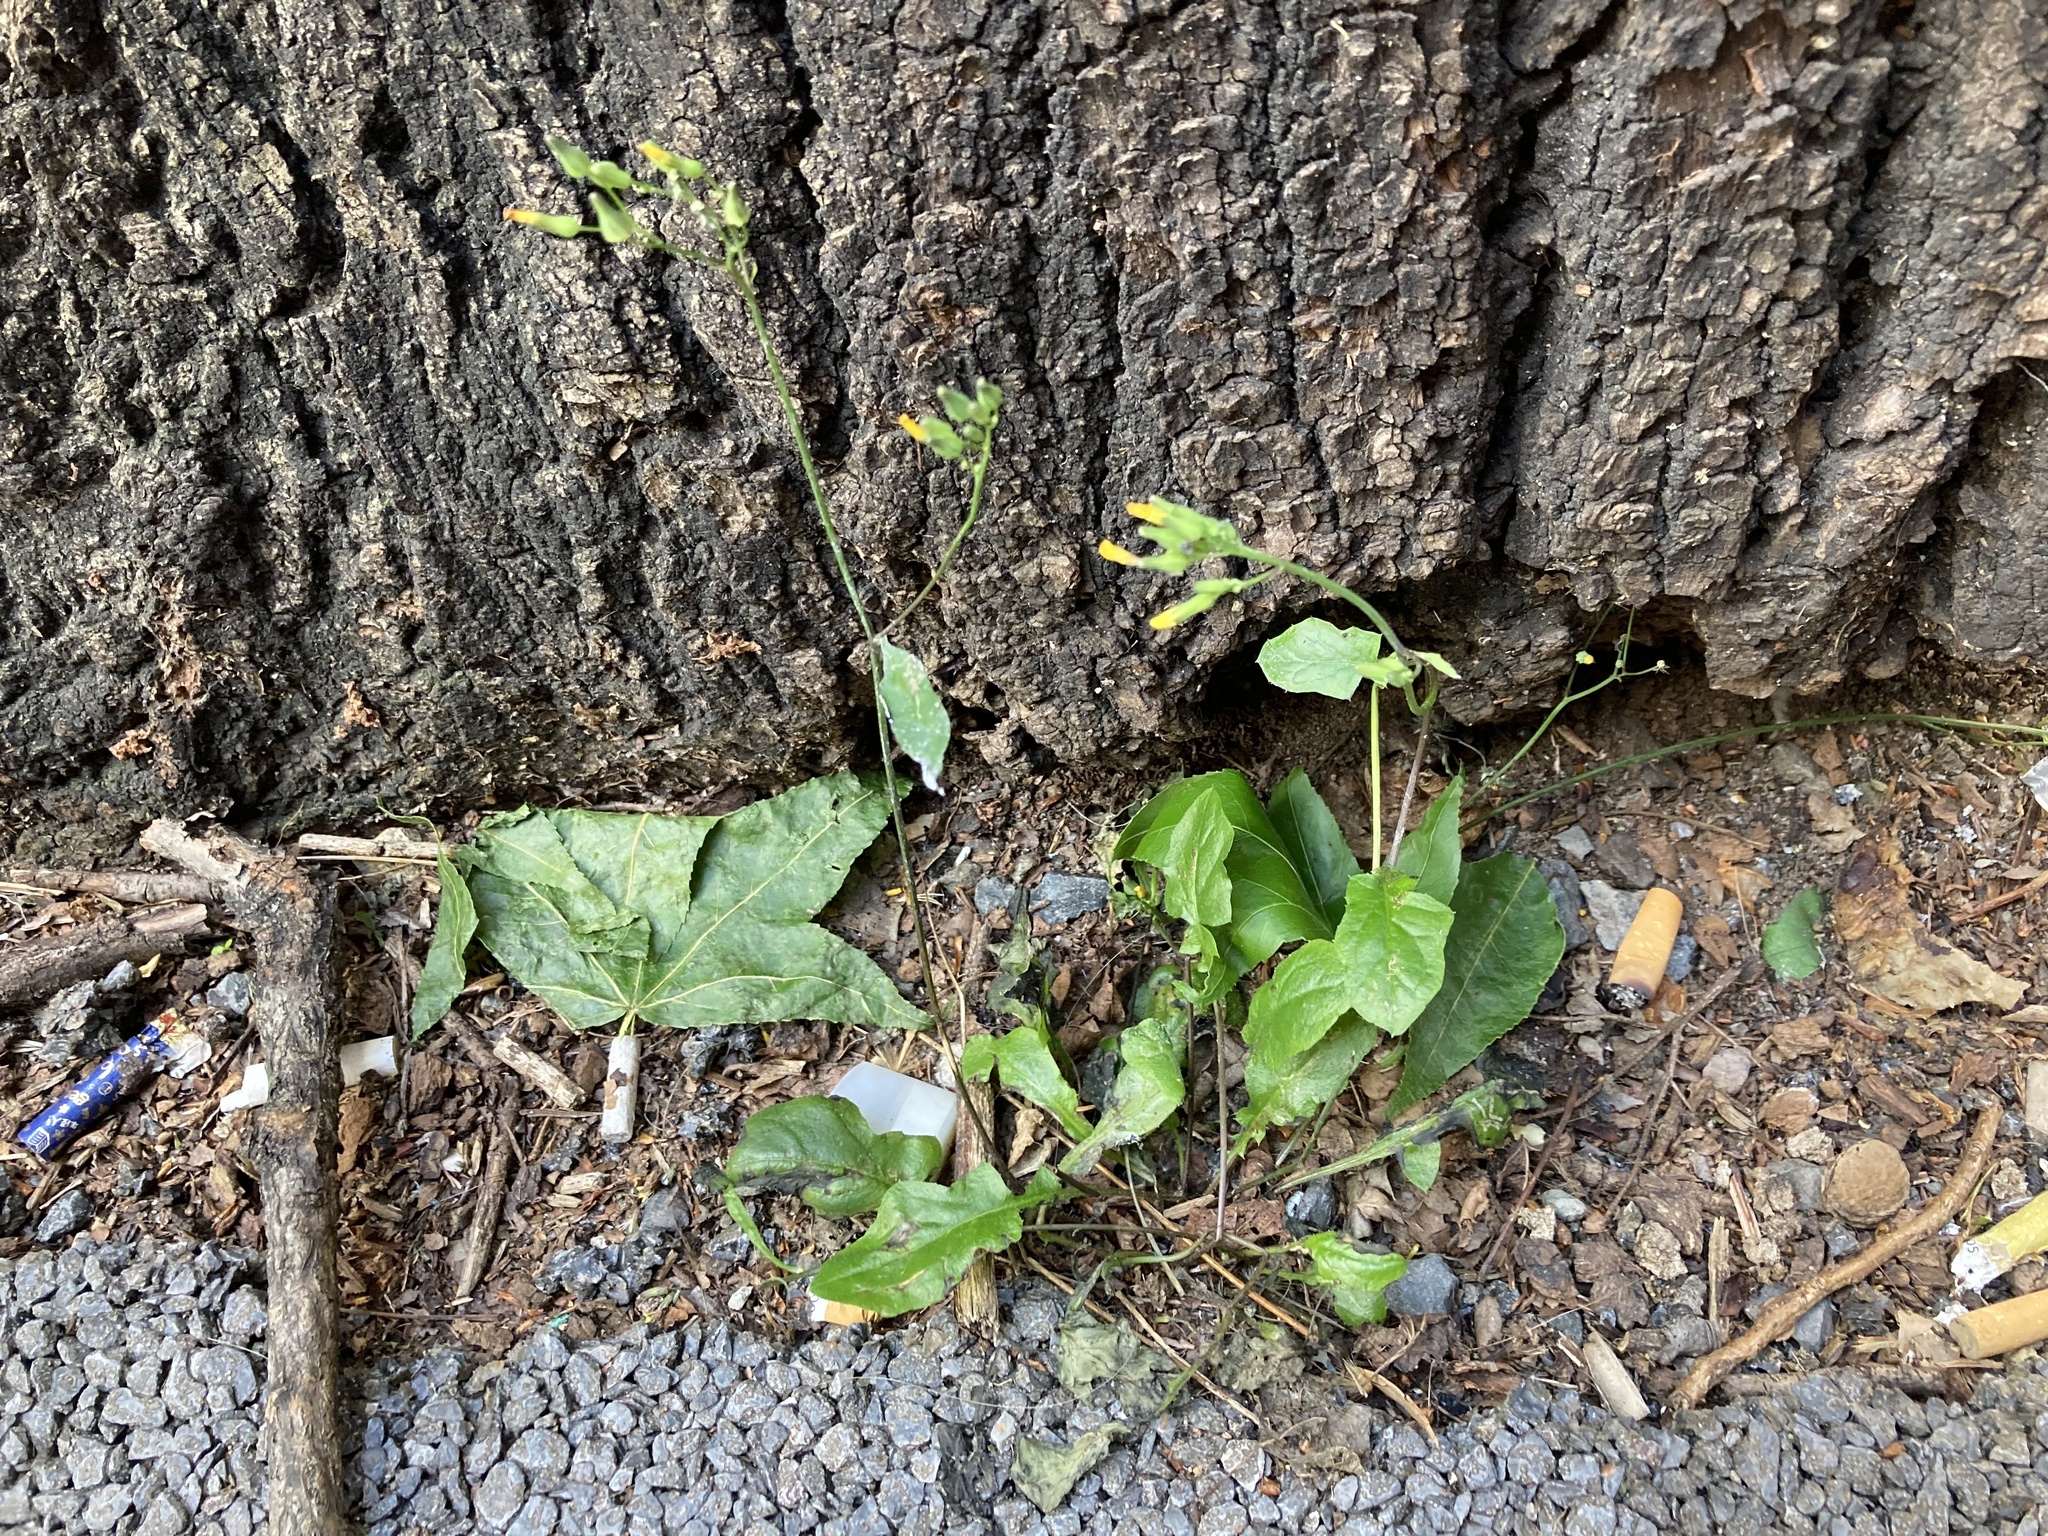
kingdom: Plantae
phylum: Tracheophyta
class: Magnoliopsida
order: Asterales
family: Asteraceae
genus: Youngia
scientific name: Youngia japonica
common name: Oriental false hawksbeard
